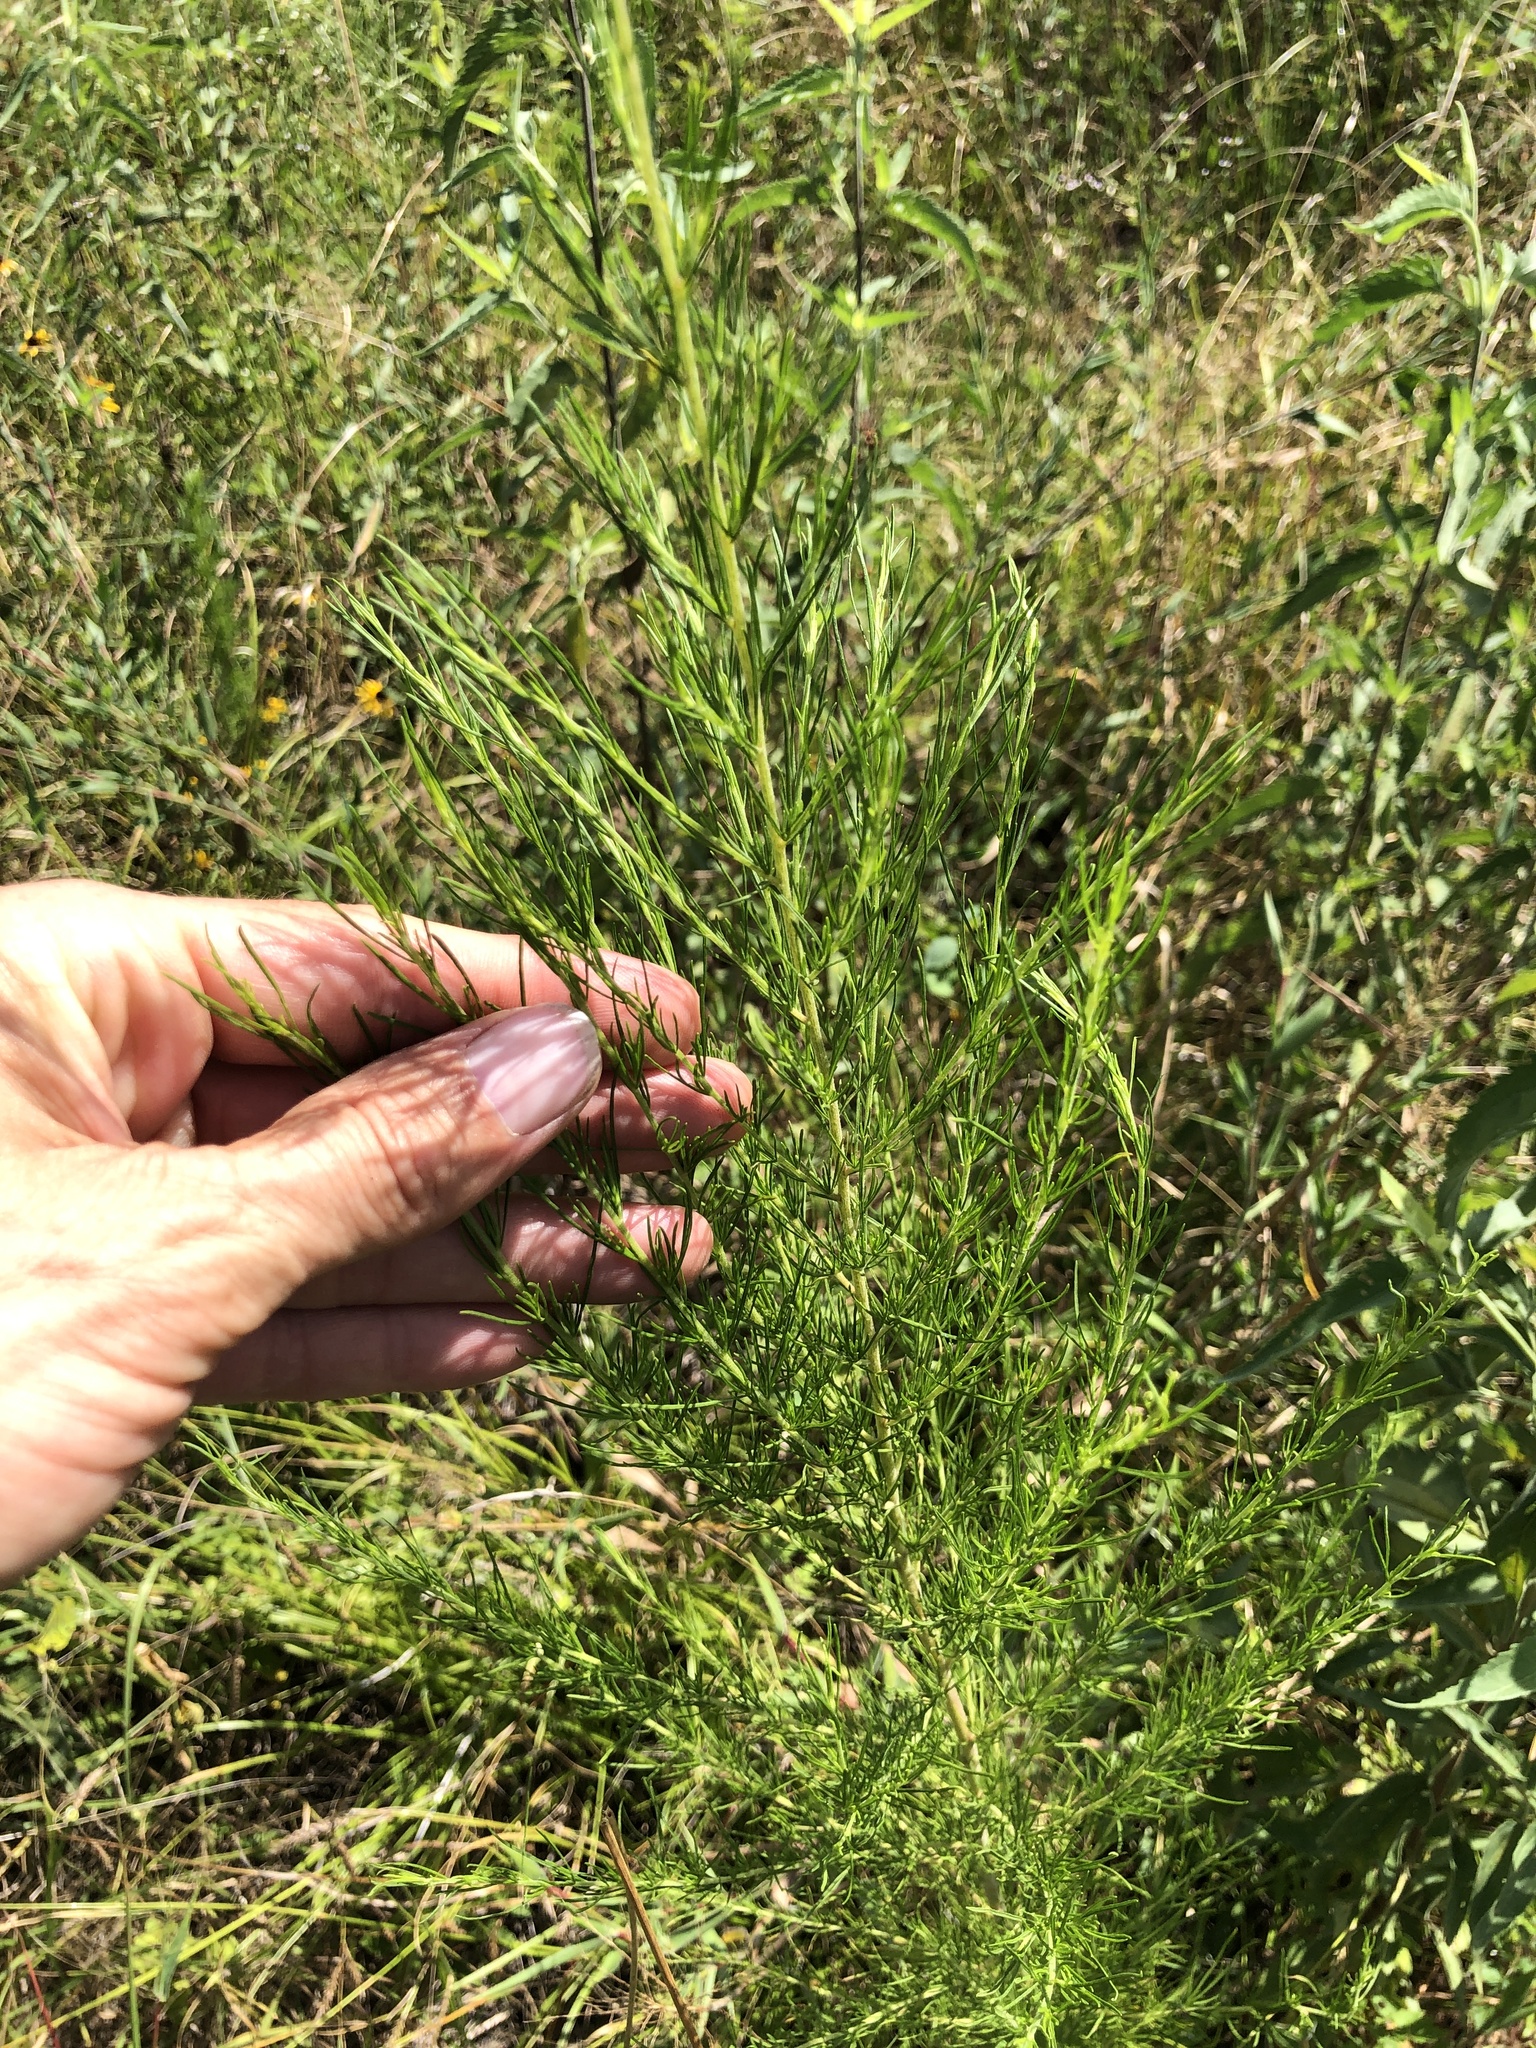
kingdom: Plantae
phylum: Tracheophyta
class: Magnoliopsida
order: Asterales
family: Asteraceae
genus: Eupatorium
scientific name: Eupatorium capillifolium
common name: Dog-fennel
